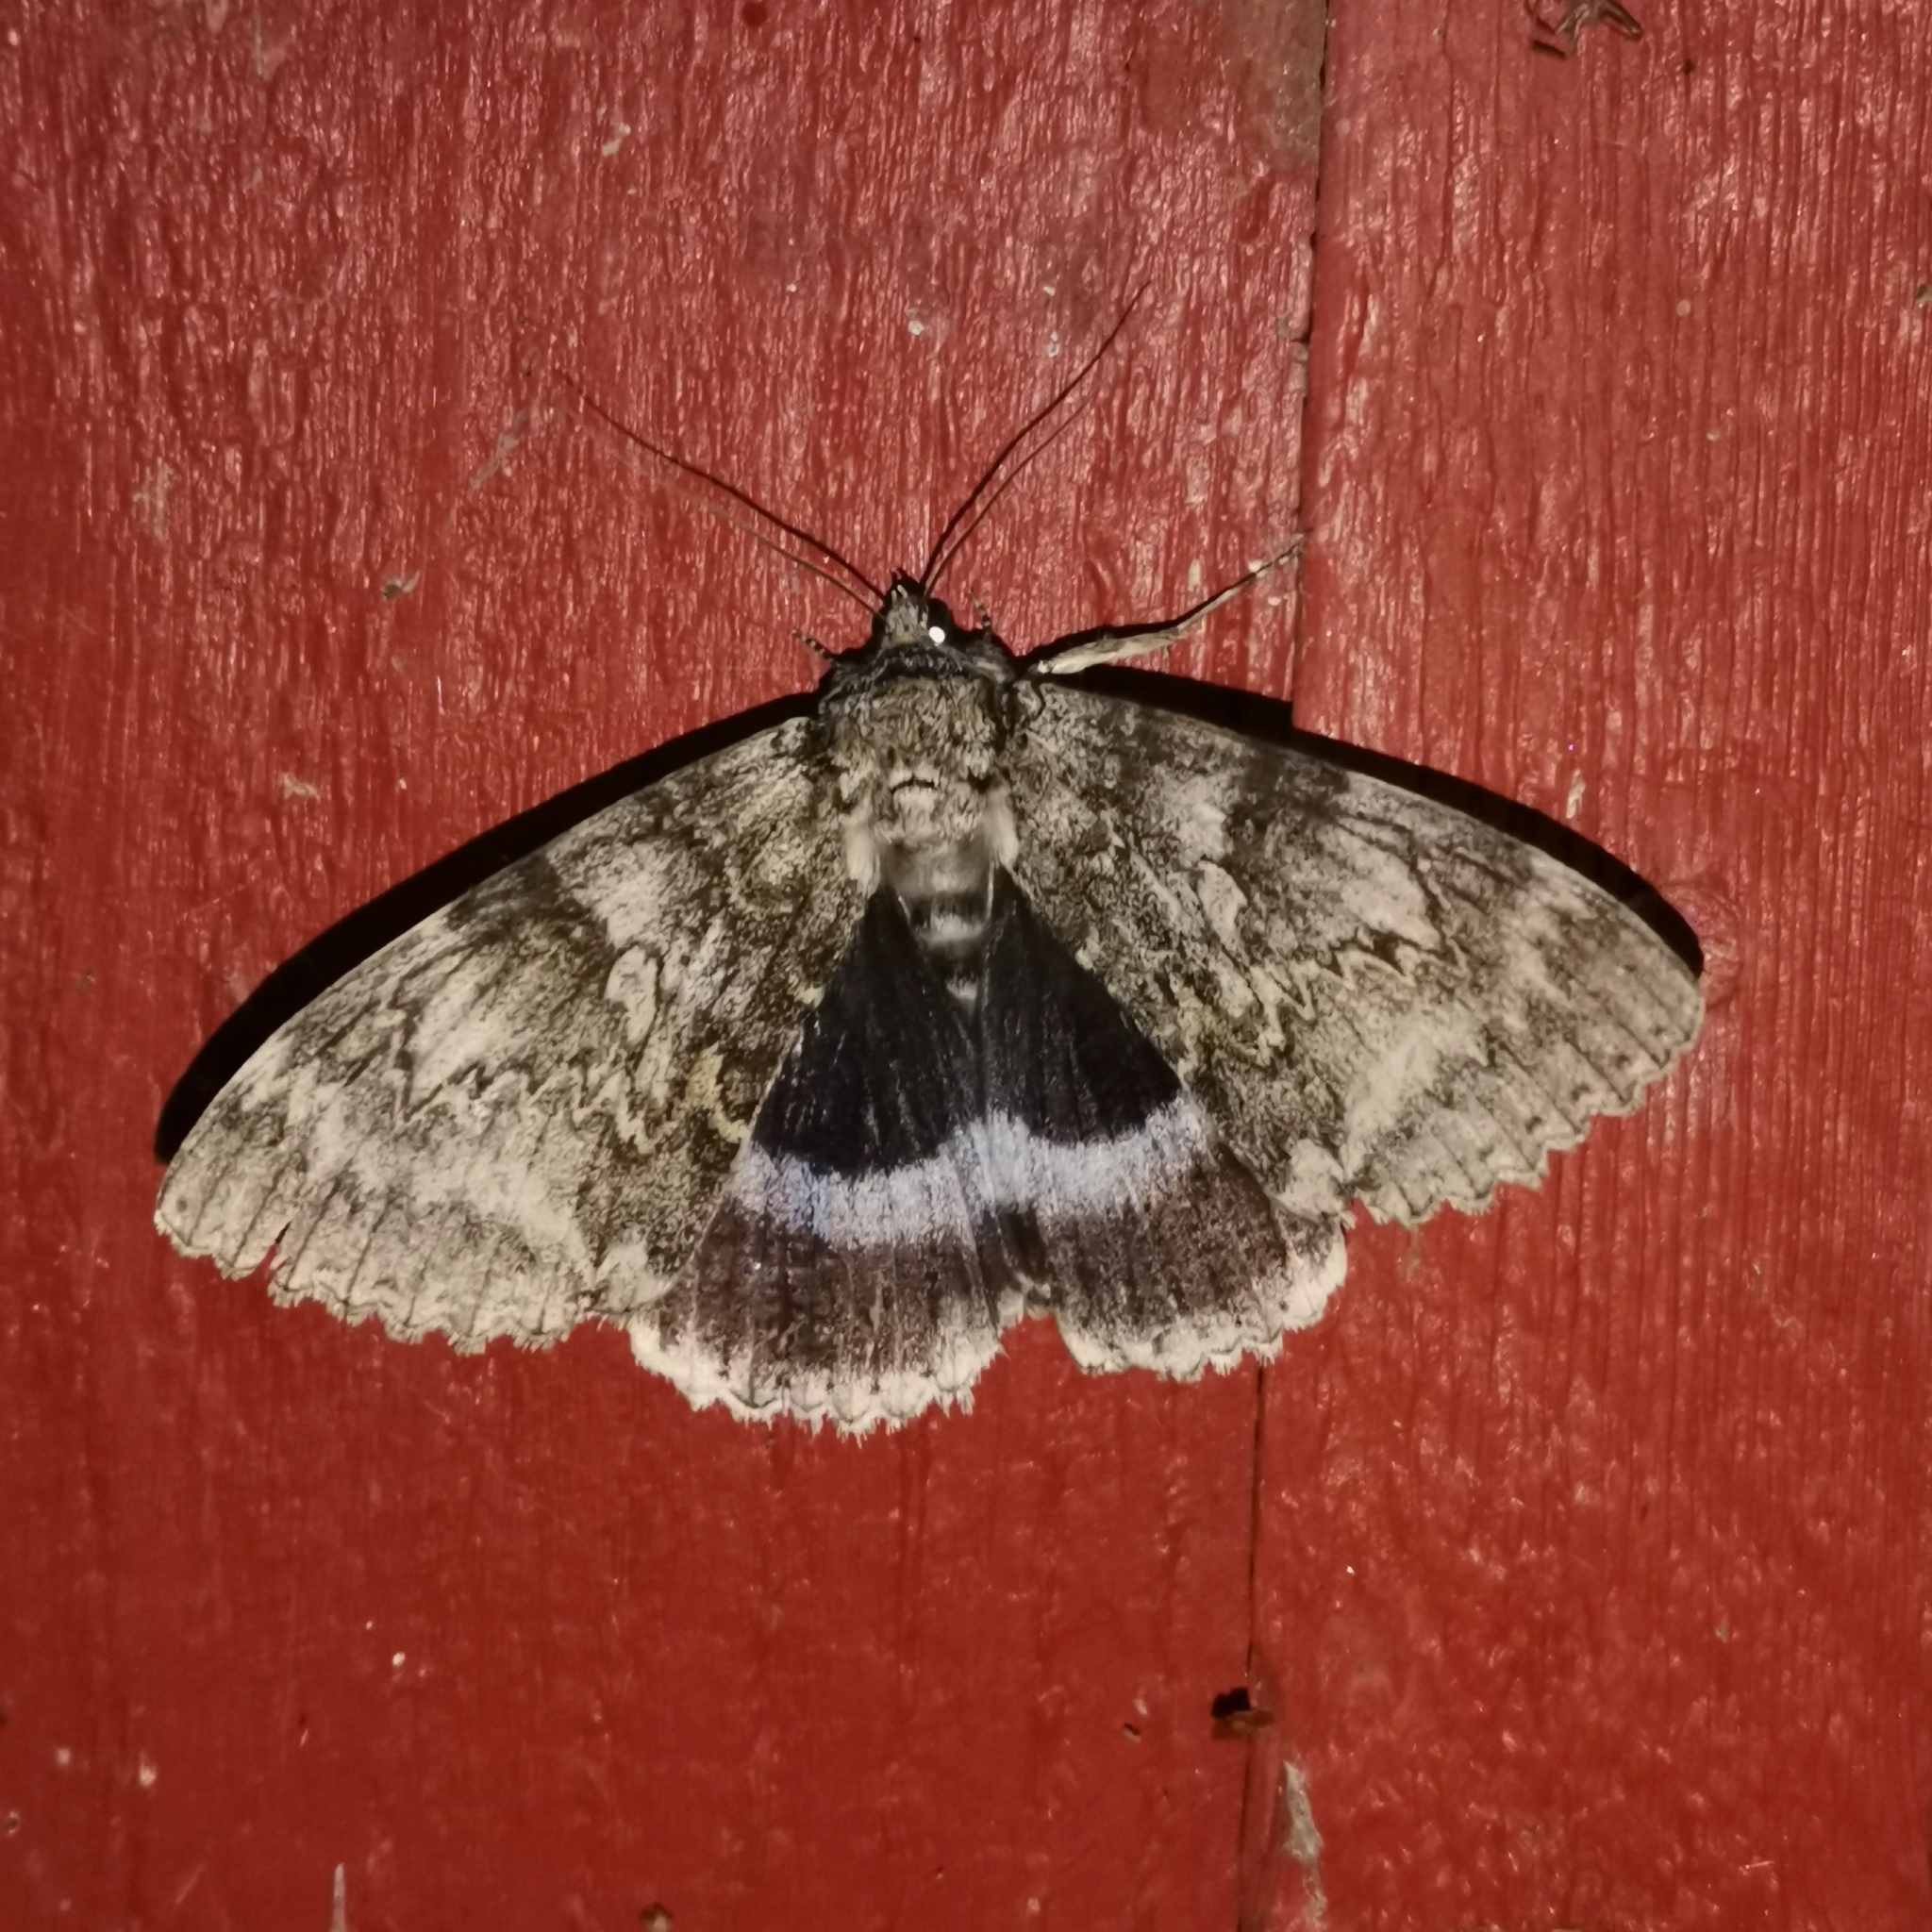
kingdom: Animalia
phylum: Arthropoda
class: Insecta
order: Lepidoptera
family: Erebidae
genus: Catocala
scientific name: Catocala fraxini
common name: Clifden nonpareil
